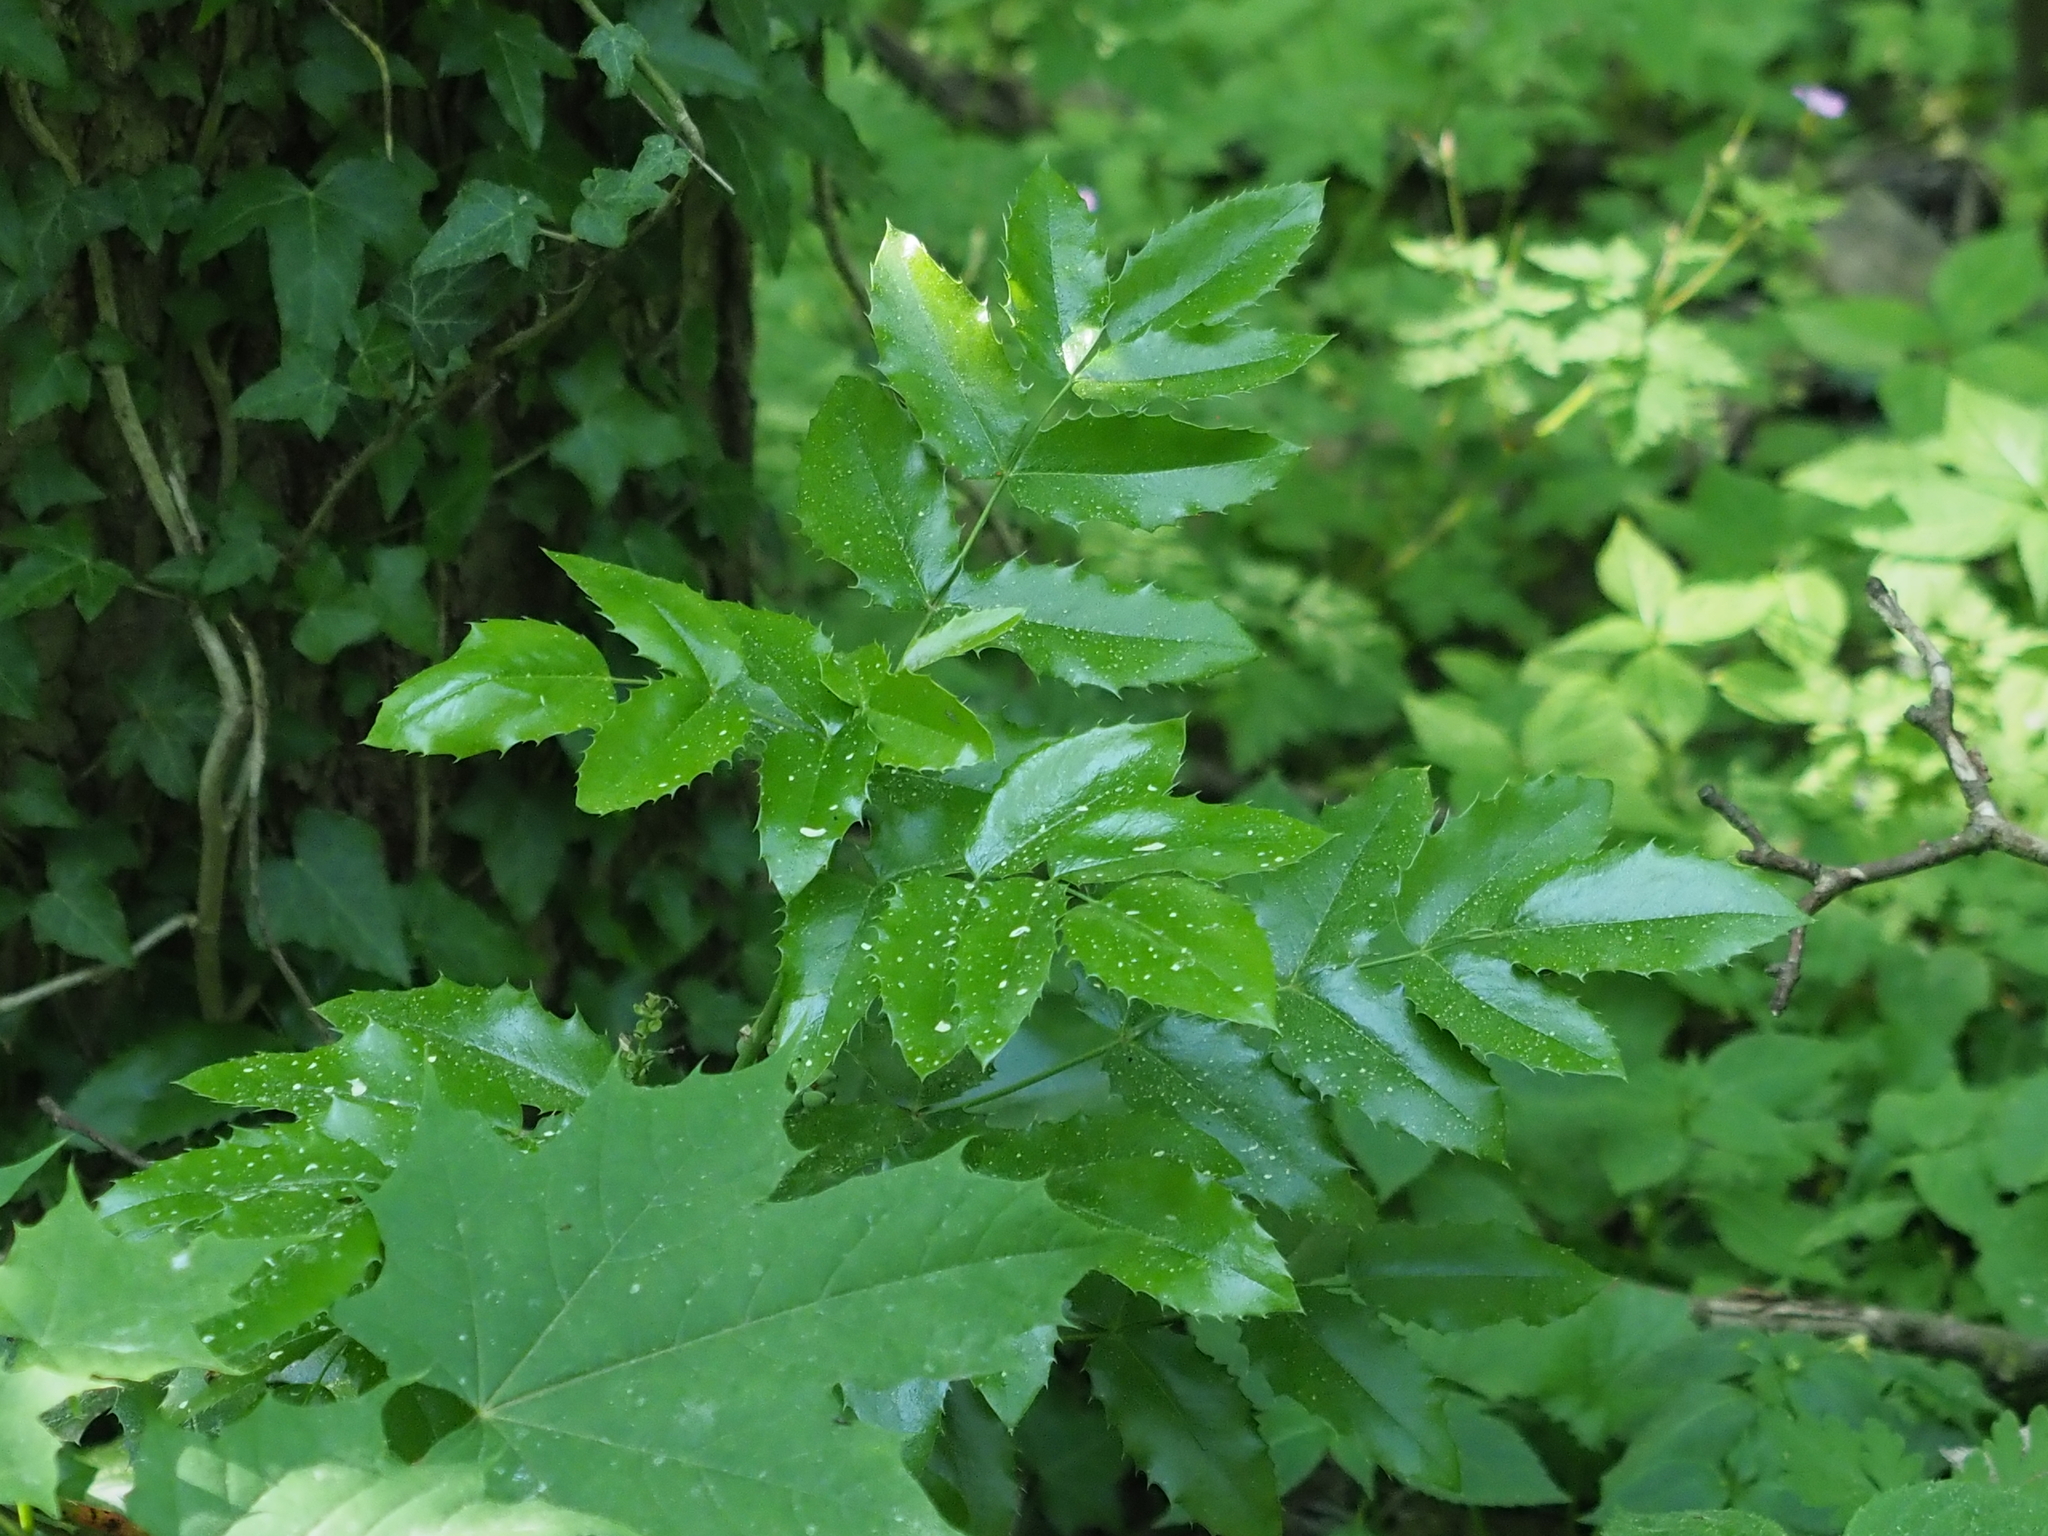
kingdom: Plantae
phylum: Tracheophyta
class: Magnoliopsida
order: Ranunculales
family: Berberidaceae
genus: Mahonia
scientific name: Mahonia aquifolium
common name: Oregon-grape
